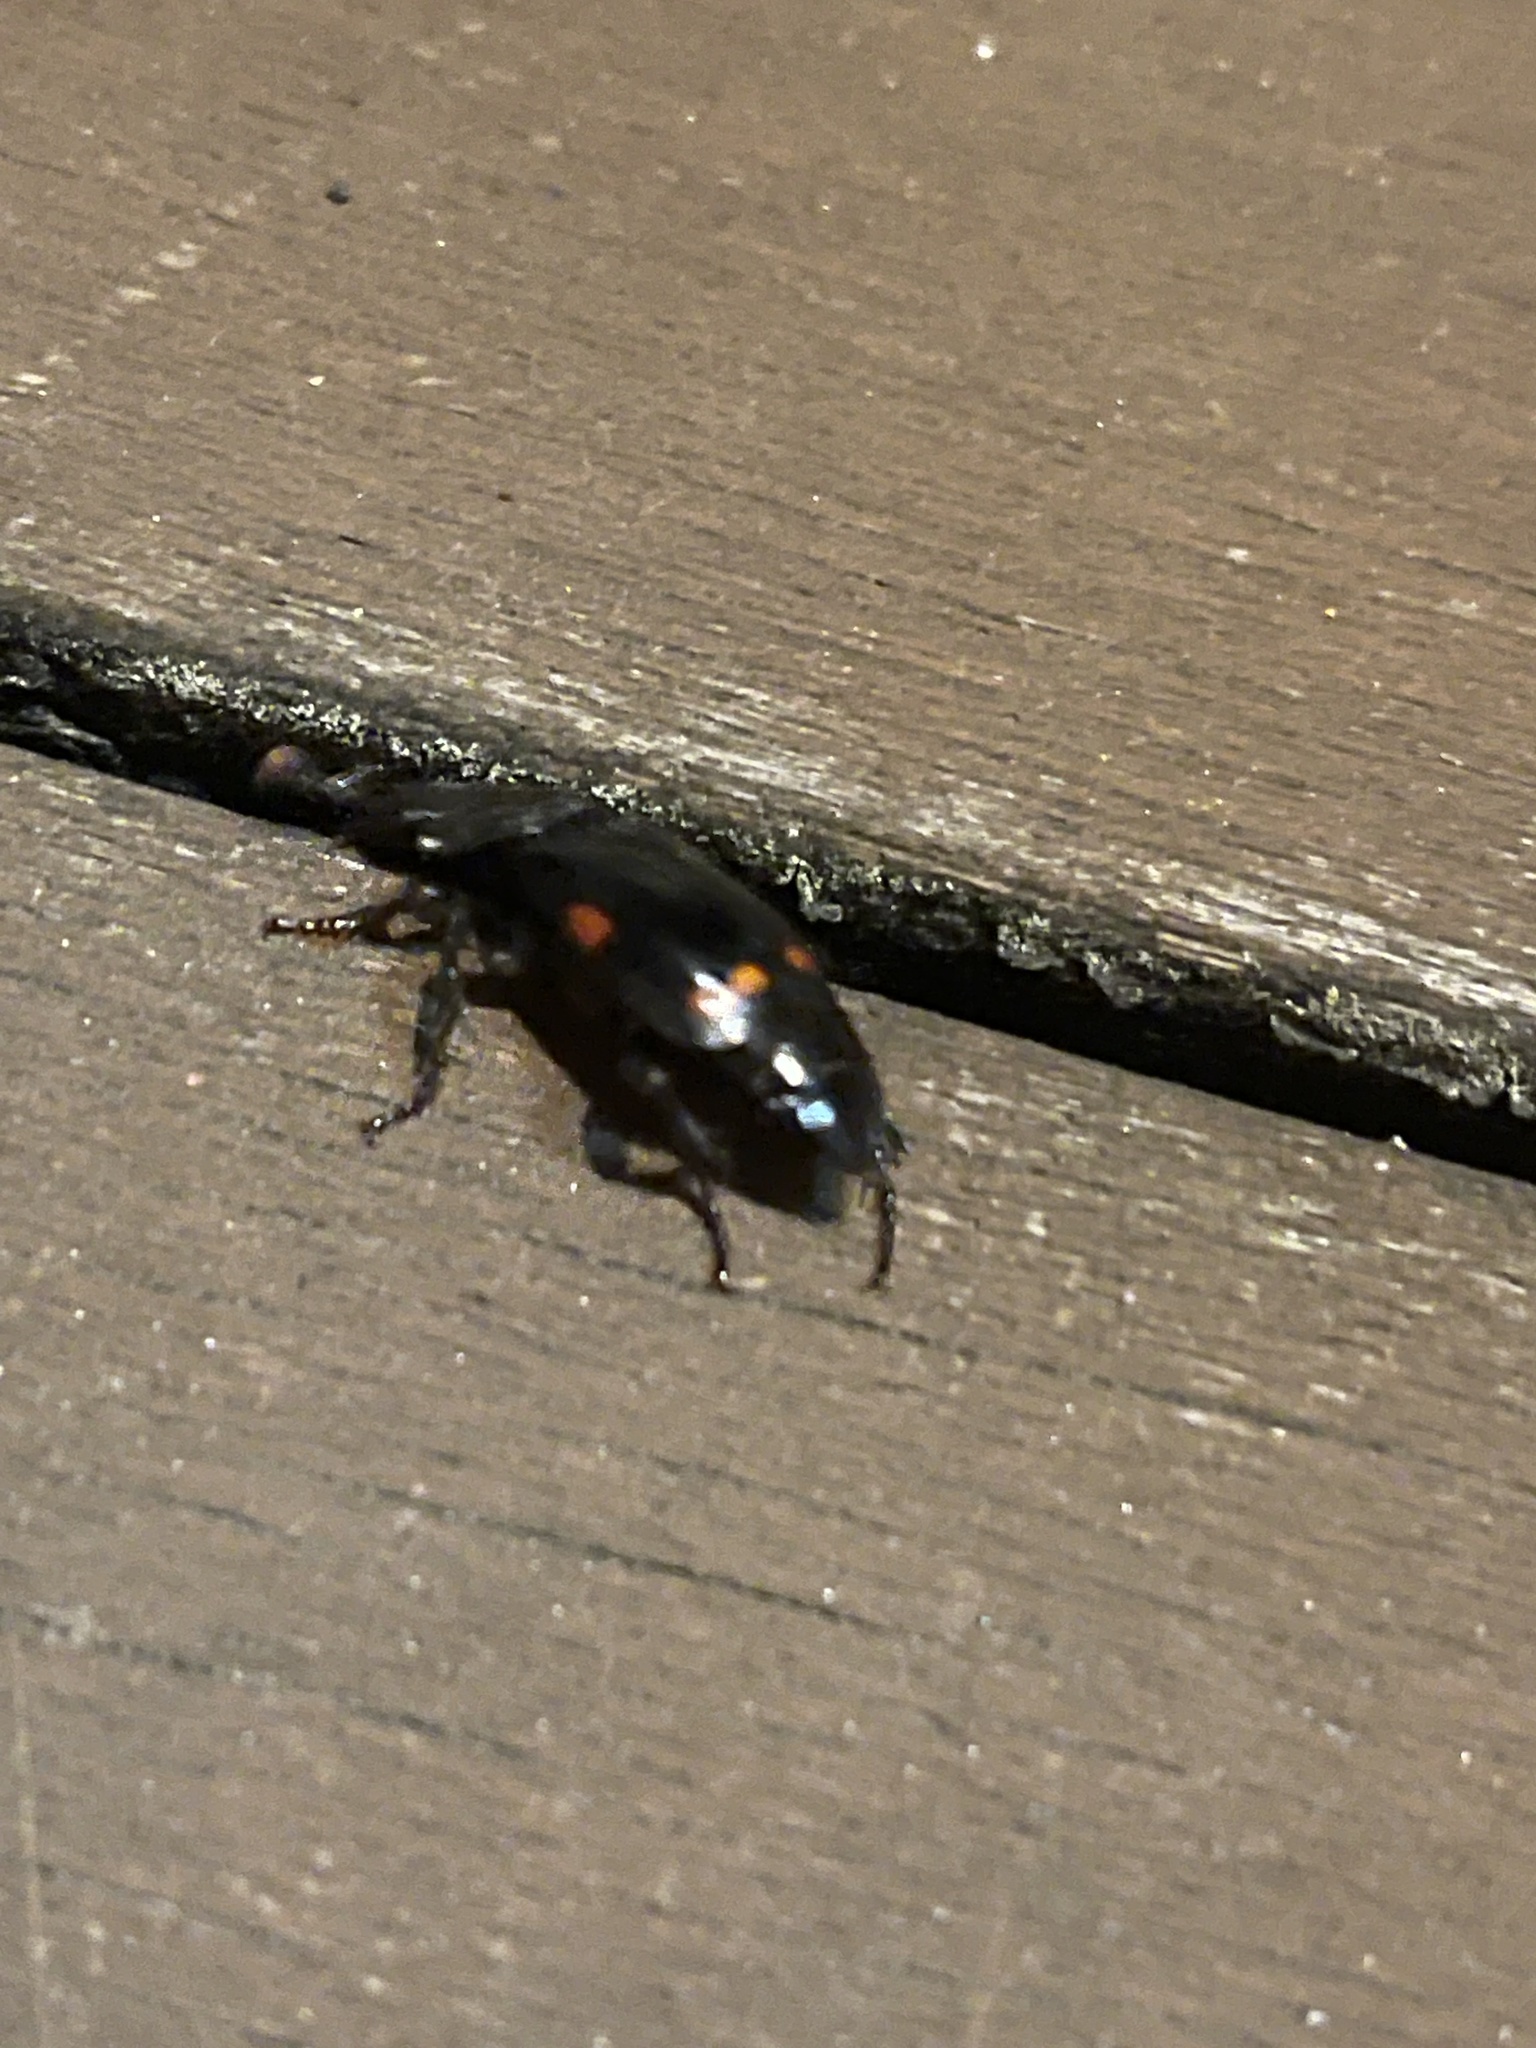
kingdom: Animalia
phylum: Arthropoda
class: Insecta
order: Coleoptera
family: Staphylinidae
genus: Nicrophorus
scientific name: Nicrophorus pustulatus
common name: Pustulated carrion beetle
